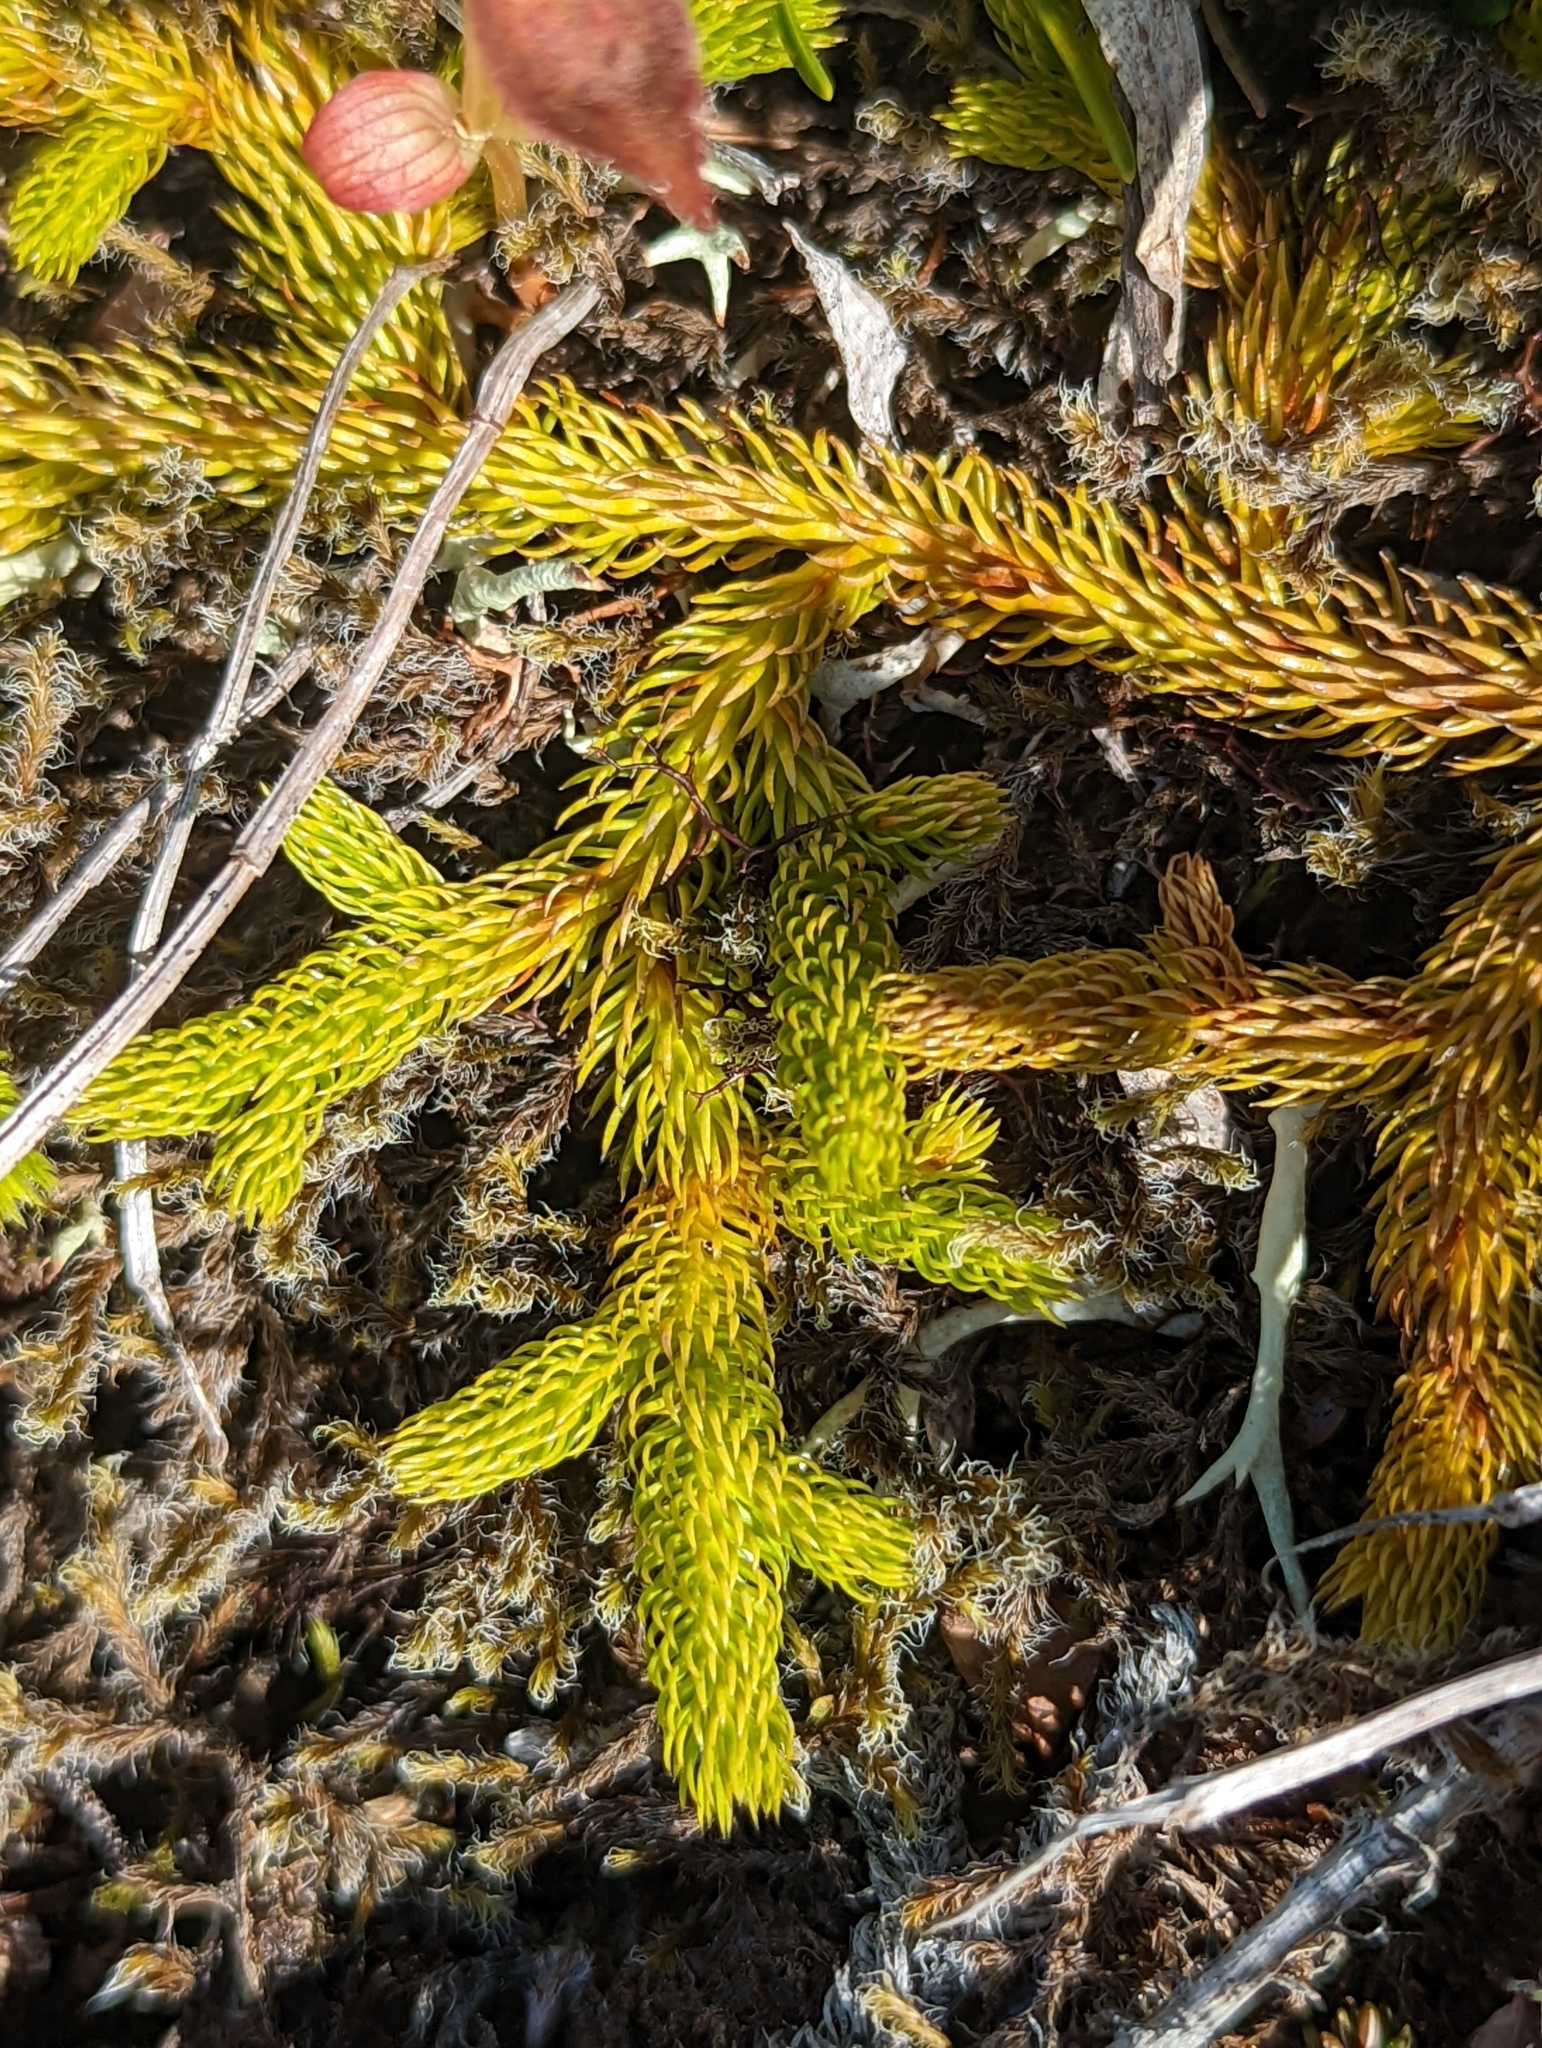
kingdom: Plantae
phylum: Tracheophyta
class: Lycopodiopsida
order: Lycopodiales
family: Lycopodiaceae
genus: Lycopodium
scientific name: Lycopodium clavatum
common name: Stag's-horn clubmoss
